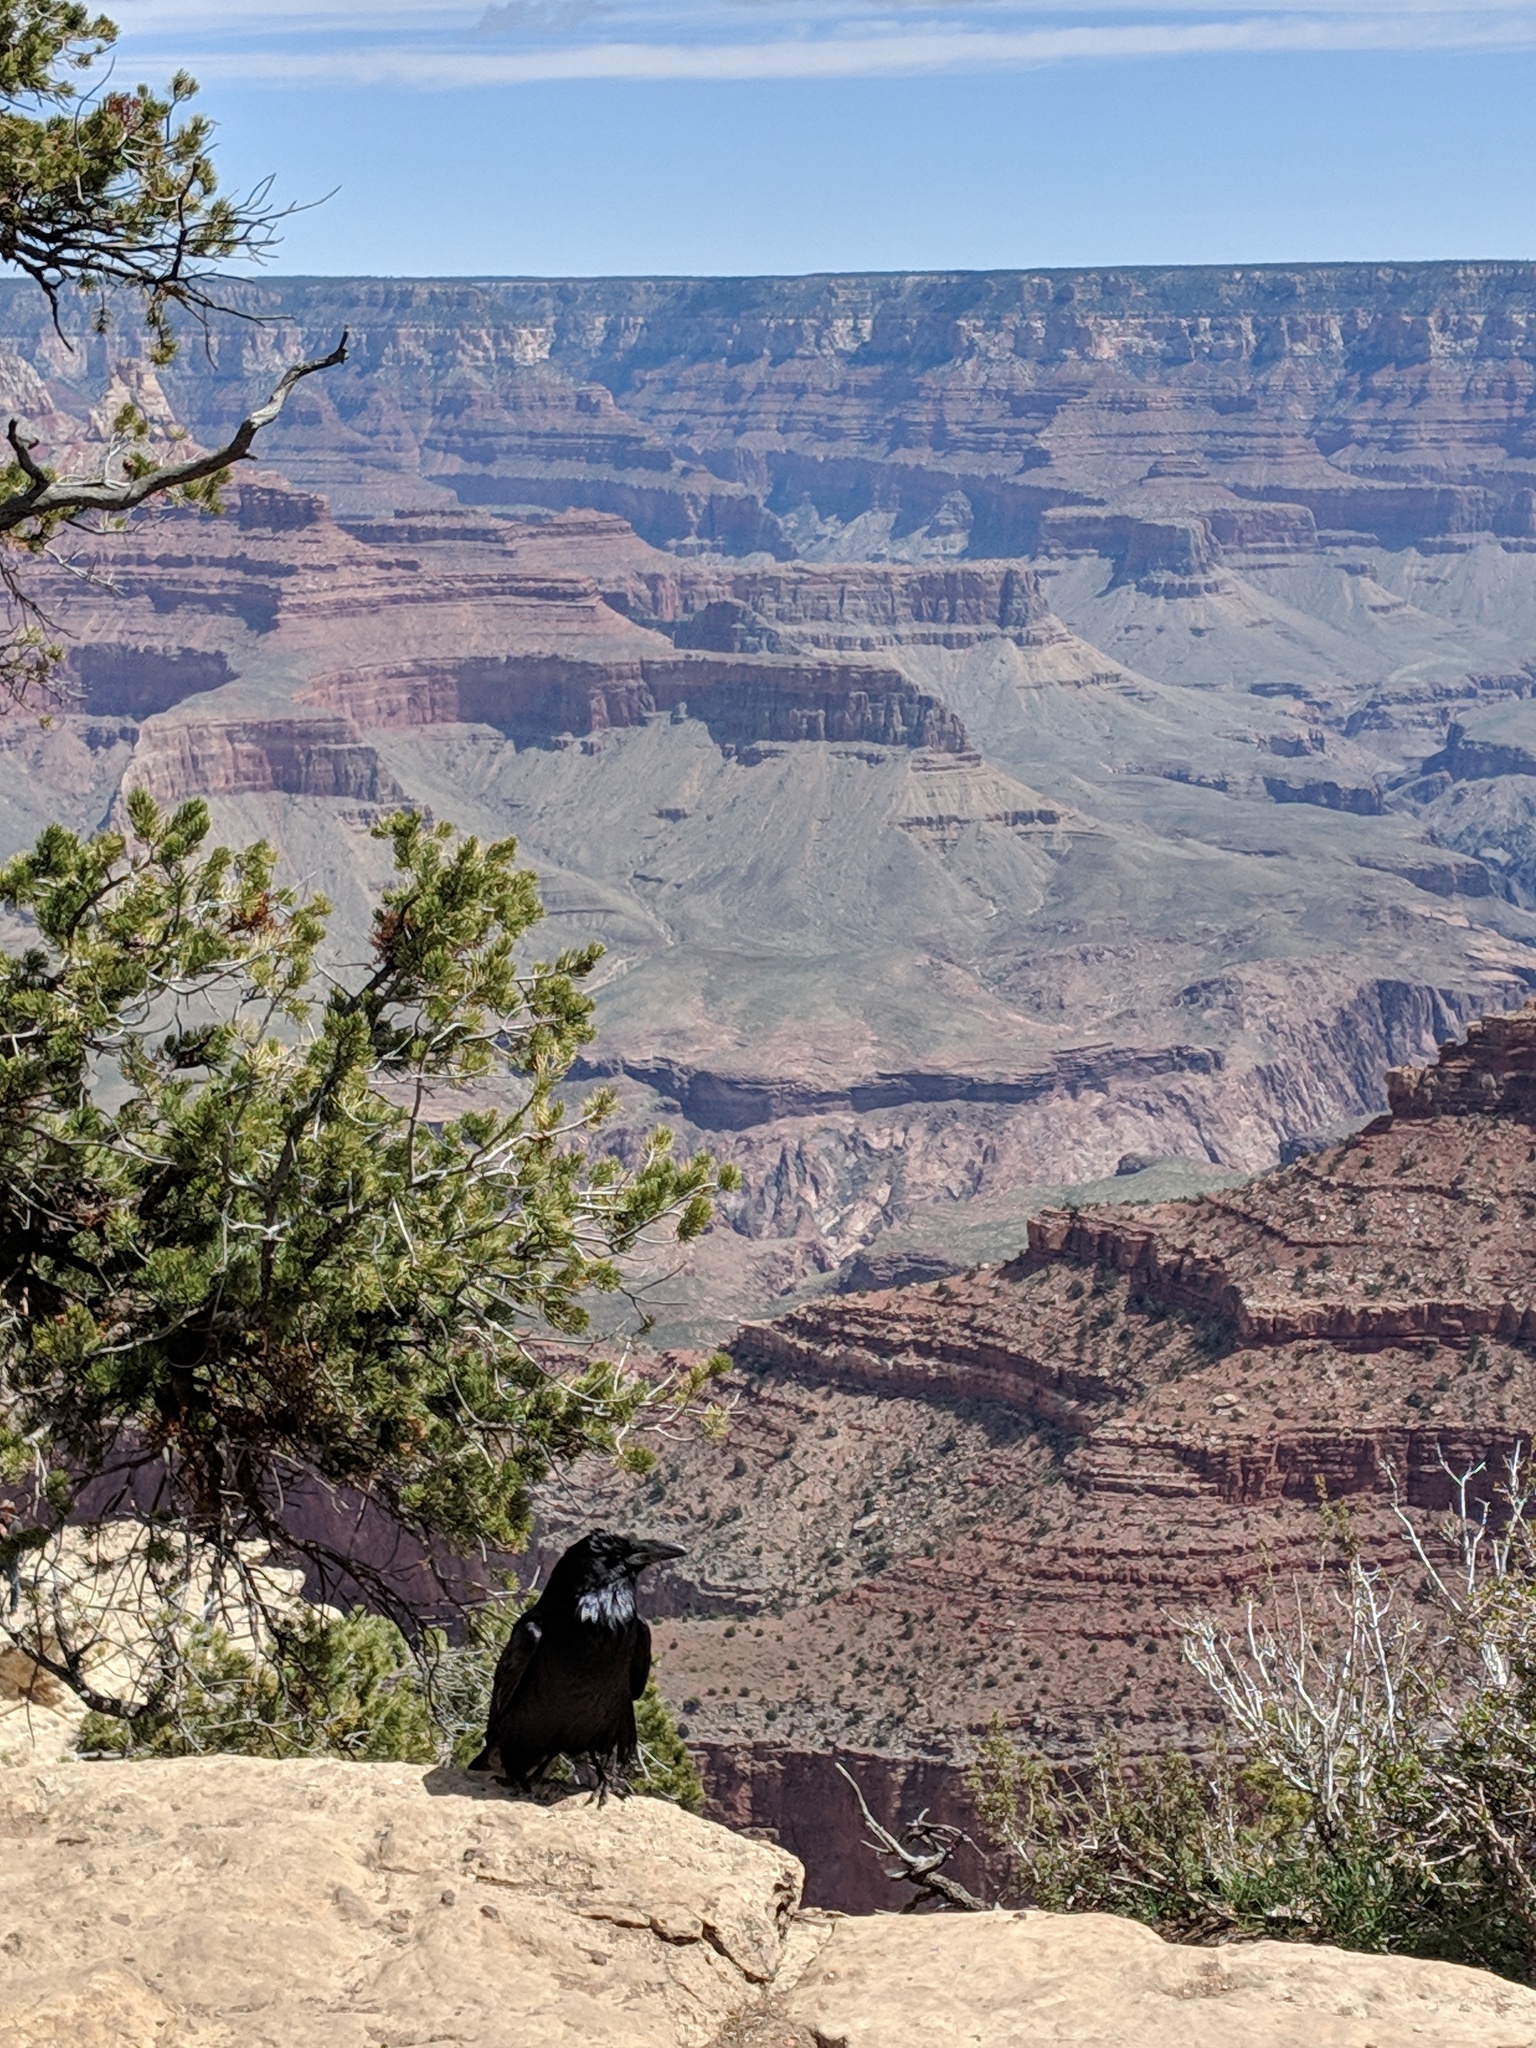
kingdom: Animalia
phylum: Chordata
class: Aves
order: Passeriformes
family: Corvidae
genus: Corvus
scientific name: Corvus corax
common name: Common raven
